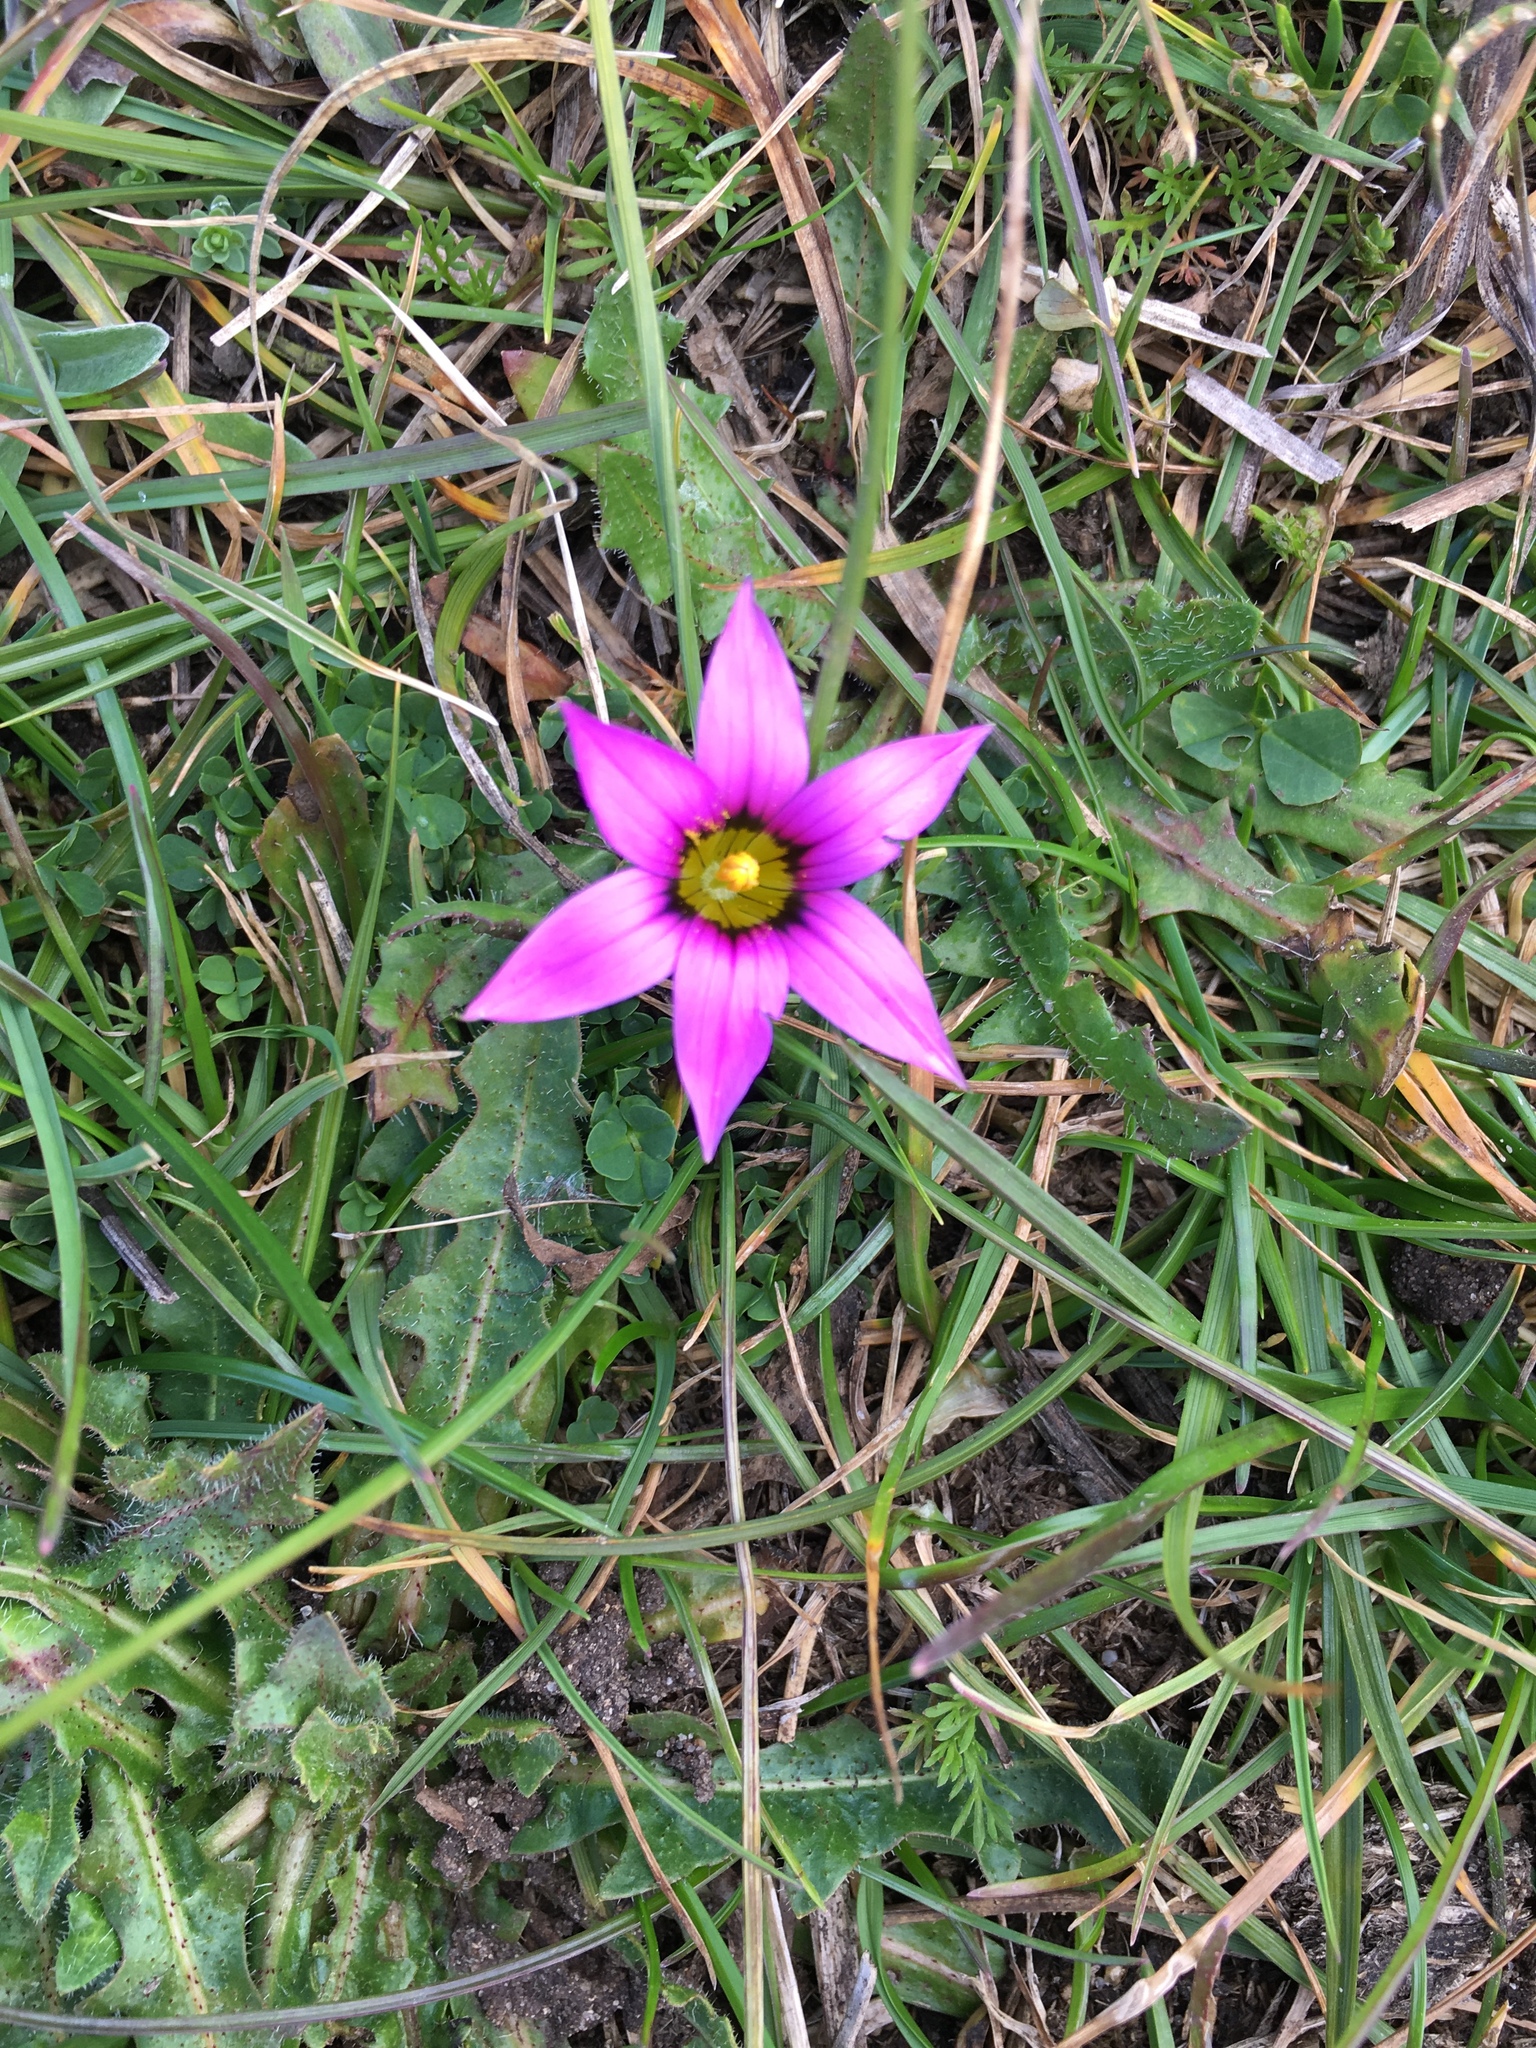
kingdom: Plantae
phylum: Tracheophyta
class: Liliopsida
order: Asparagales
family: Iridaceae
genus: Romulea
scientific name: Romulea rosea
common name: Oniongrass
